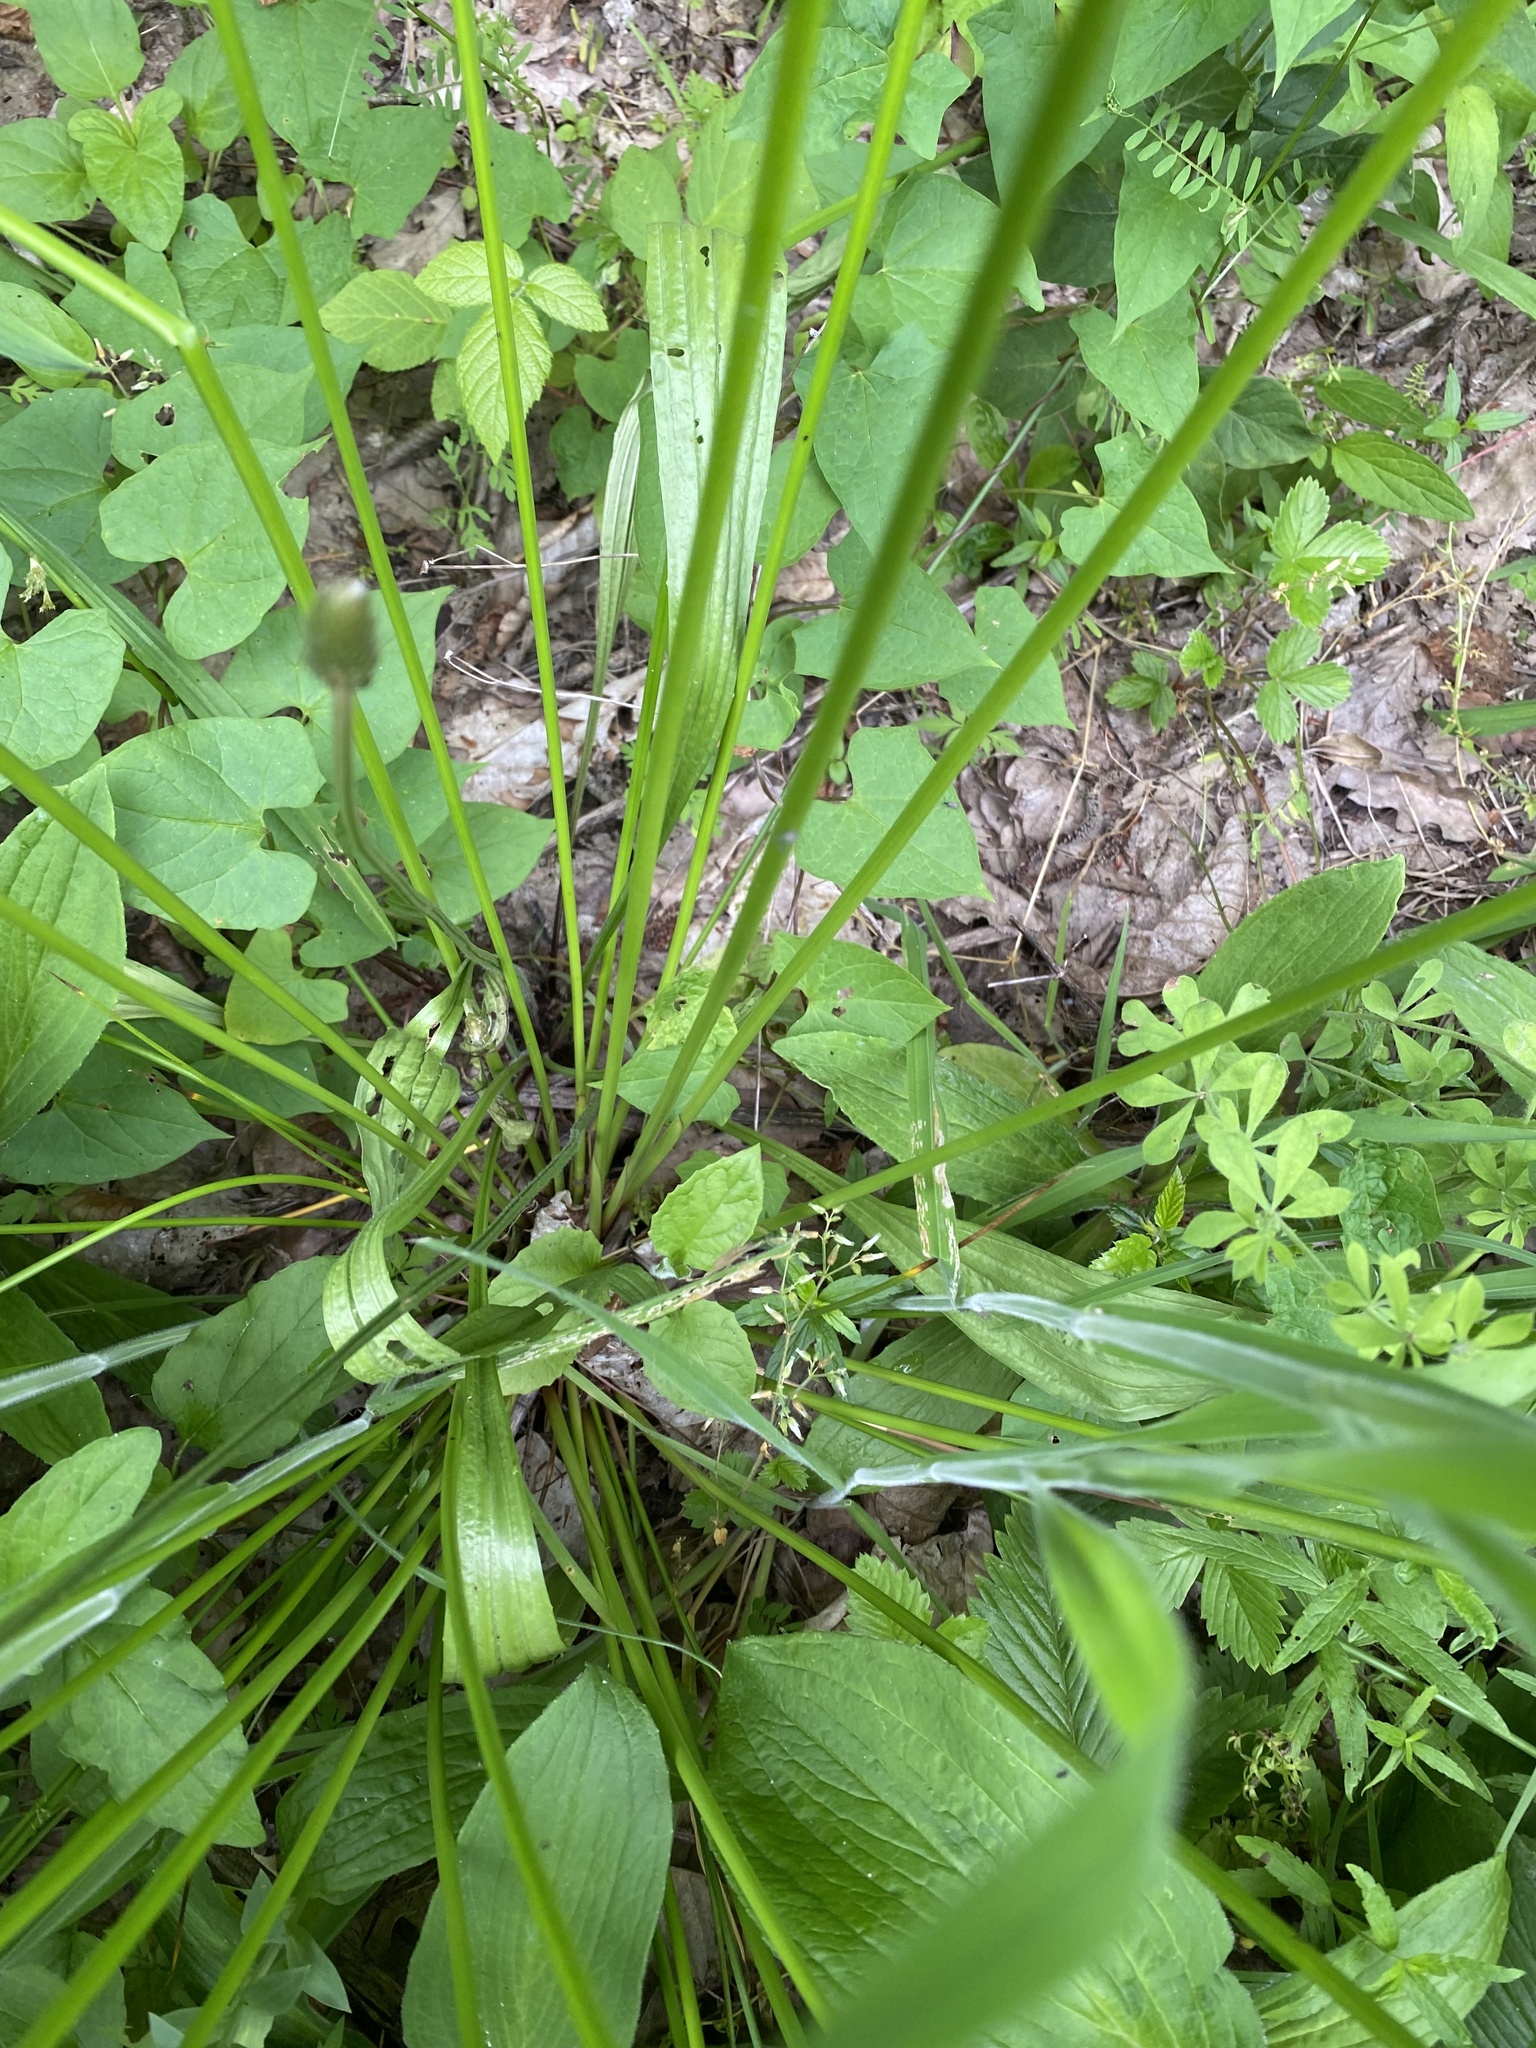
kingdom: Plantae
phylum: Tracheophyta
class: Liliopsida
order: Poales
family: Juncaceae
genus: Juncus
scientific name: Juncus effusus
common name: Soft rush
